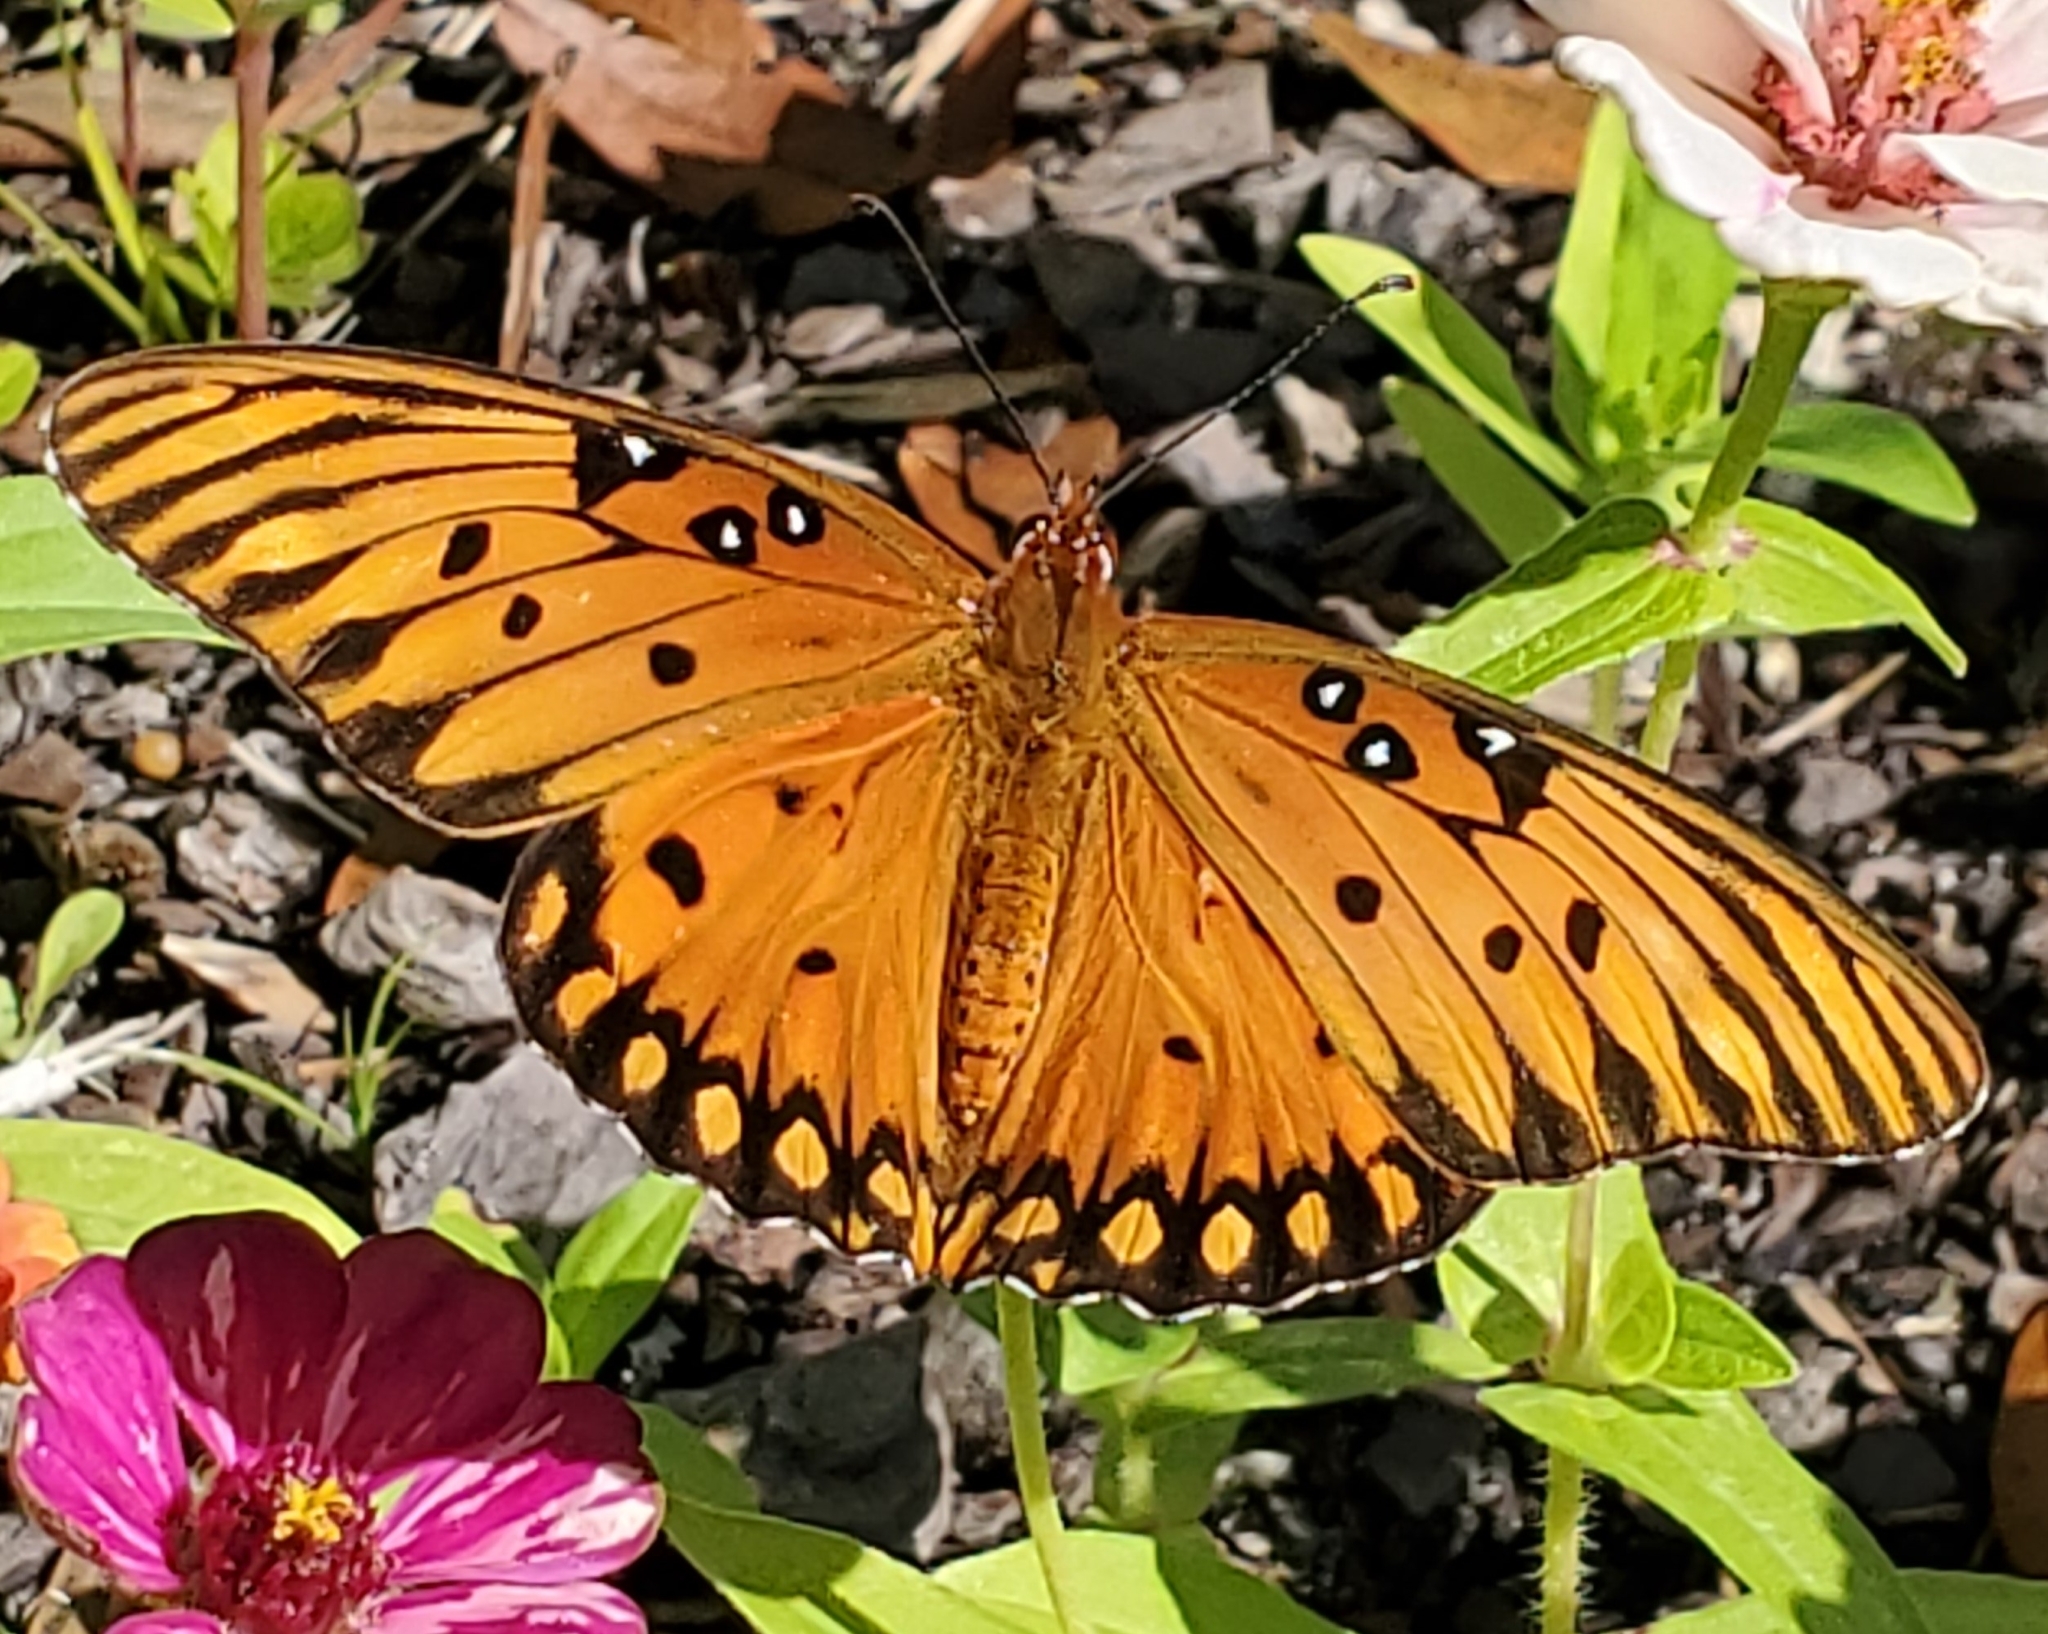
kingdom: Animalia
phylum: Arthropoda
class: Insecta
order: Lepidoptera
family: Nymphalidae
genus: Dione
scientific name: Dione vanillae
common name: Gulf fritillary
